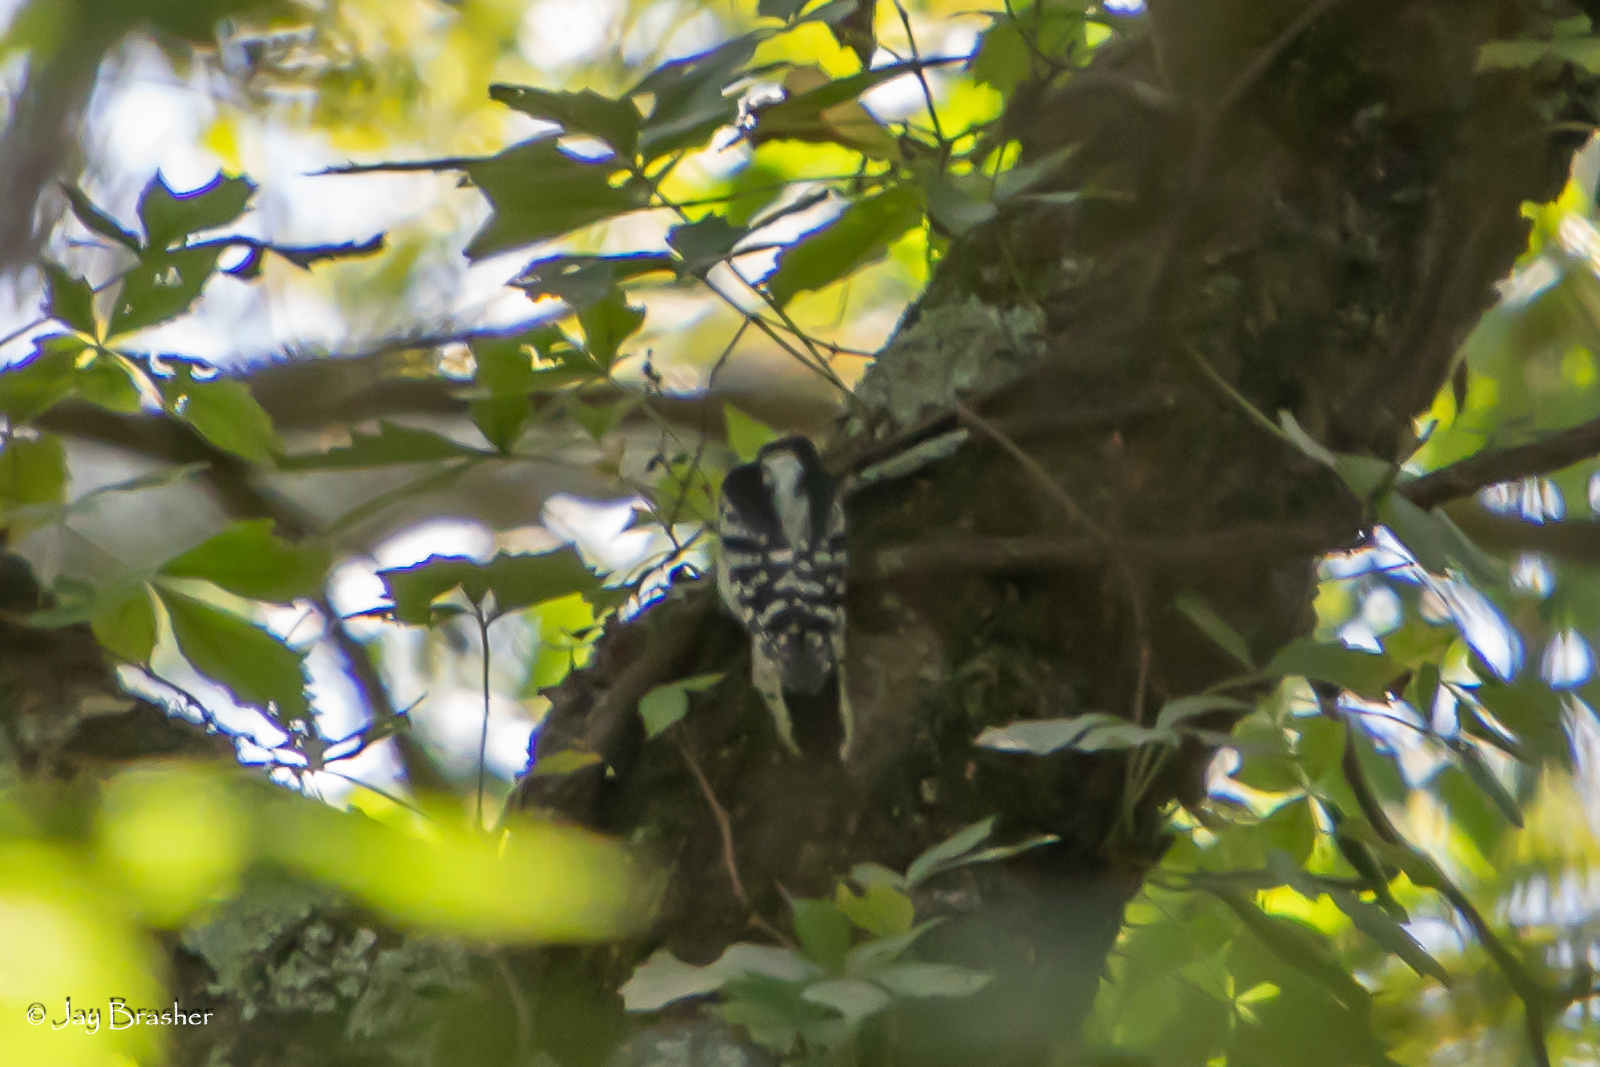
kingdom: Animalia
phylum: Chordata
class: Aves
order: Piciformes
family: Picidae
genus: Dryobates
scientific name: Dryobates pubescens
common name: Downy woodpecker
